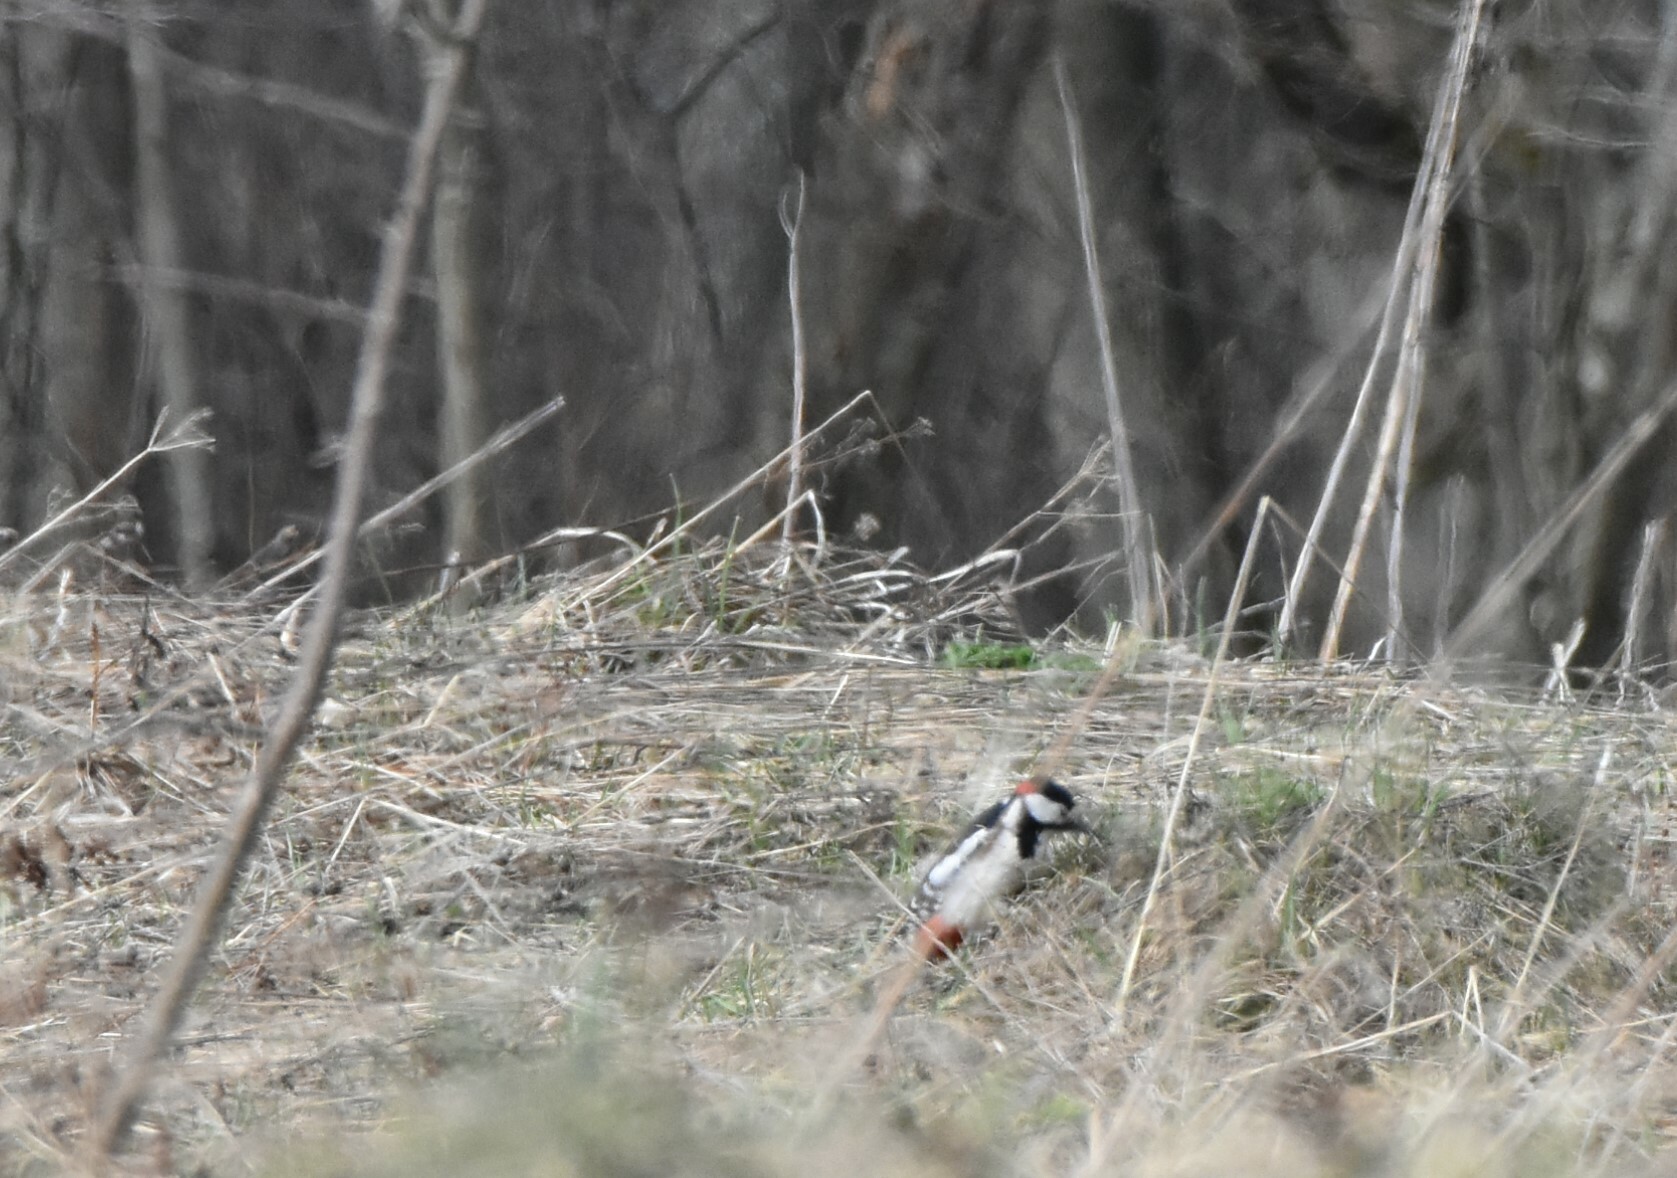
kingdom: Animalia
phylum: Chordata
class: Aves
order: Piciformes
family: Picidae
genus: Dendrocopos
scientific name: Dendrocopos major
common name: Great spotted woodpecker
